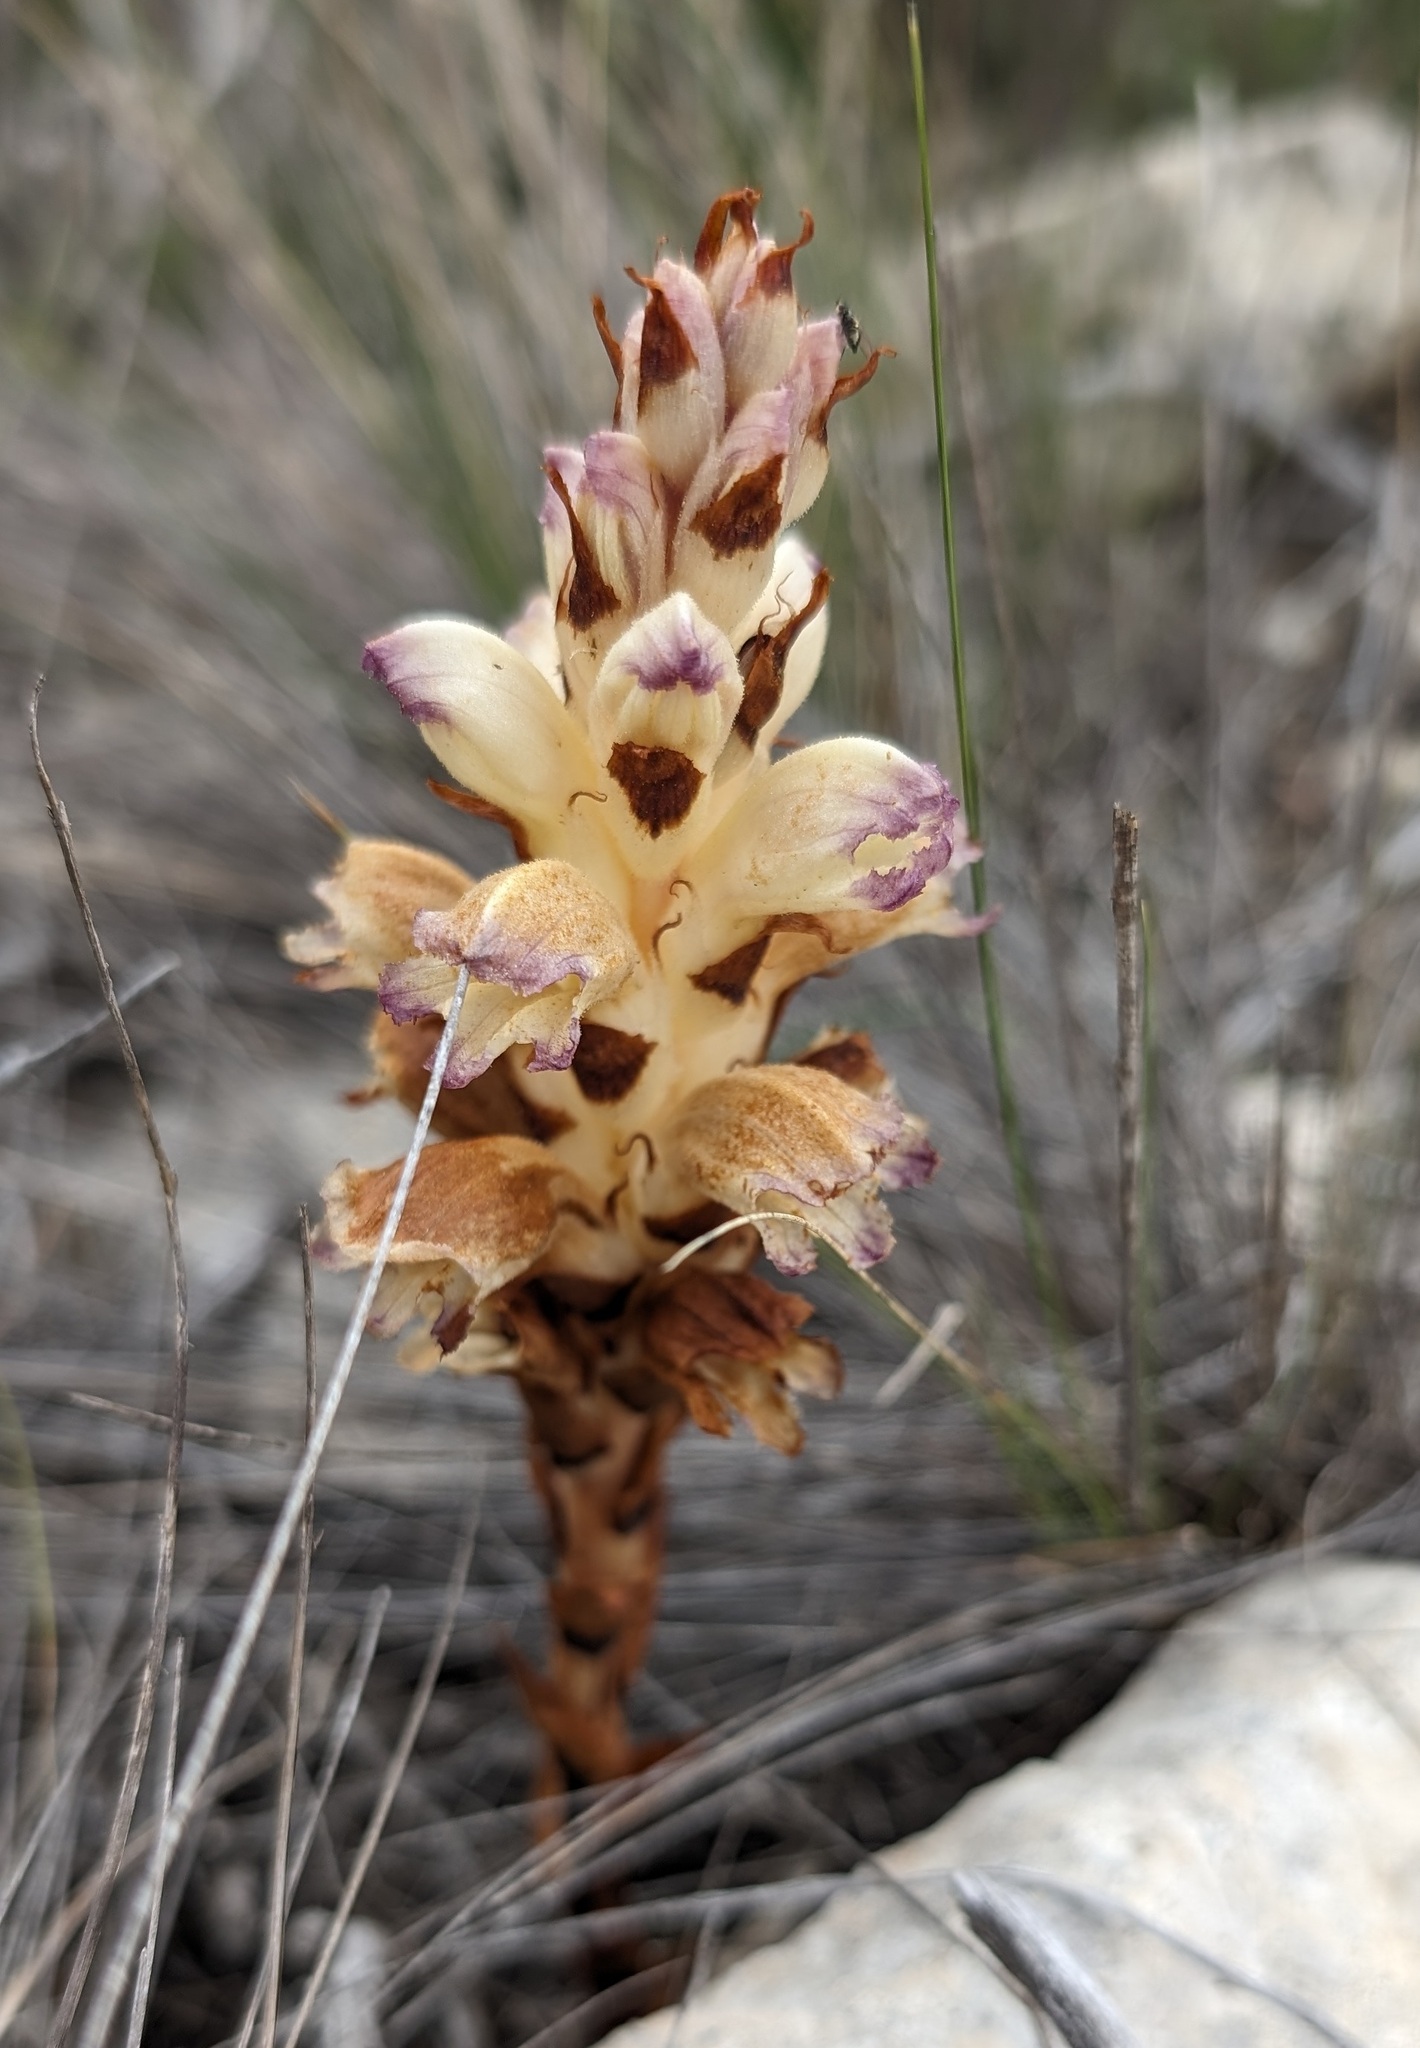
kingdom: Plantae
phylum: Tracheophyta
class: Magnoliopsida
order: Lamiales
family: Orobanchaceae
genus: Boulardia
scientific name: Boulardia latisquama
